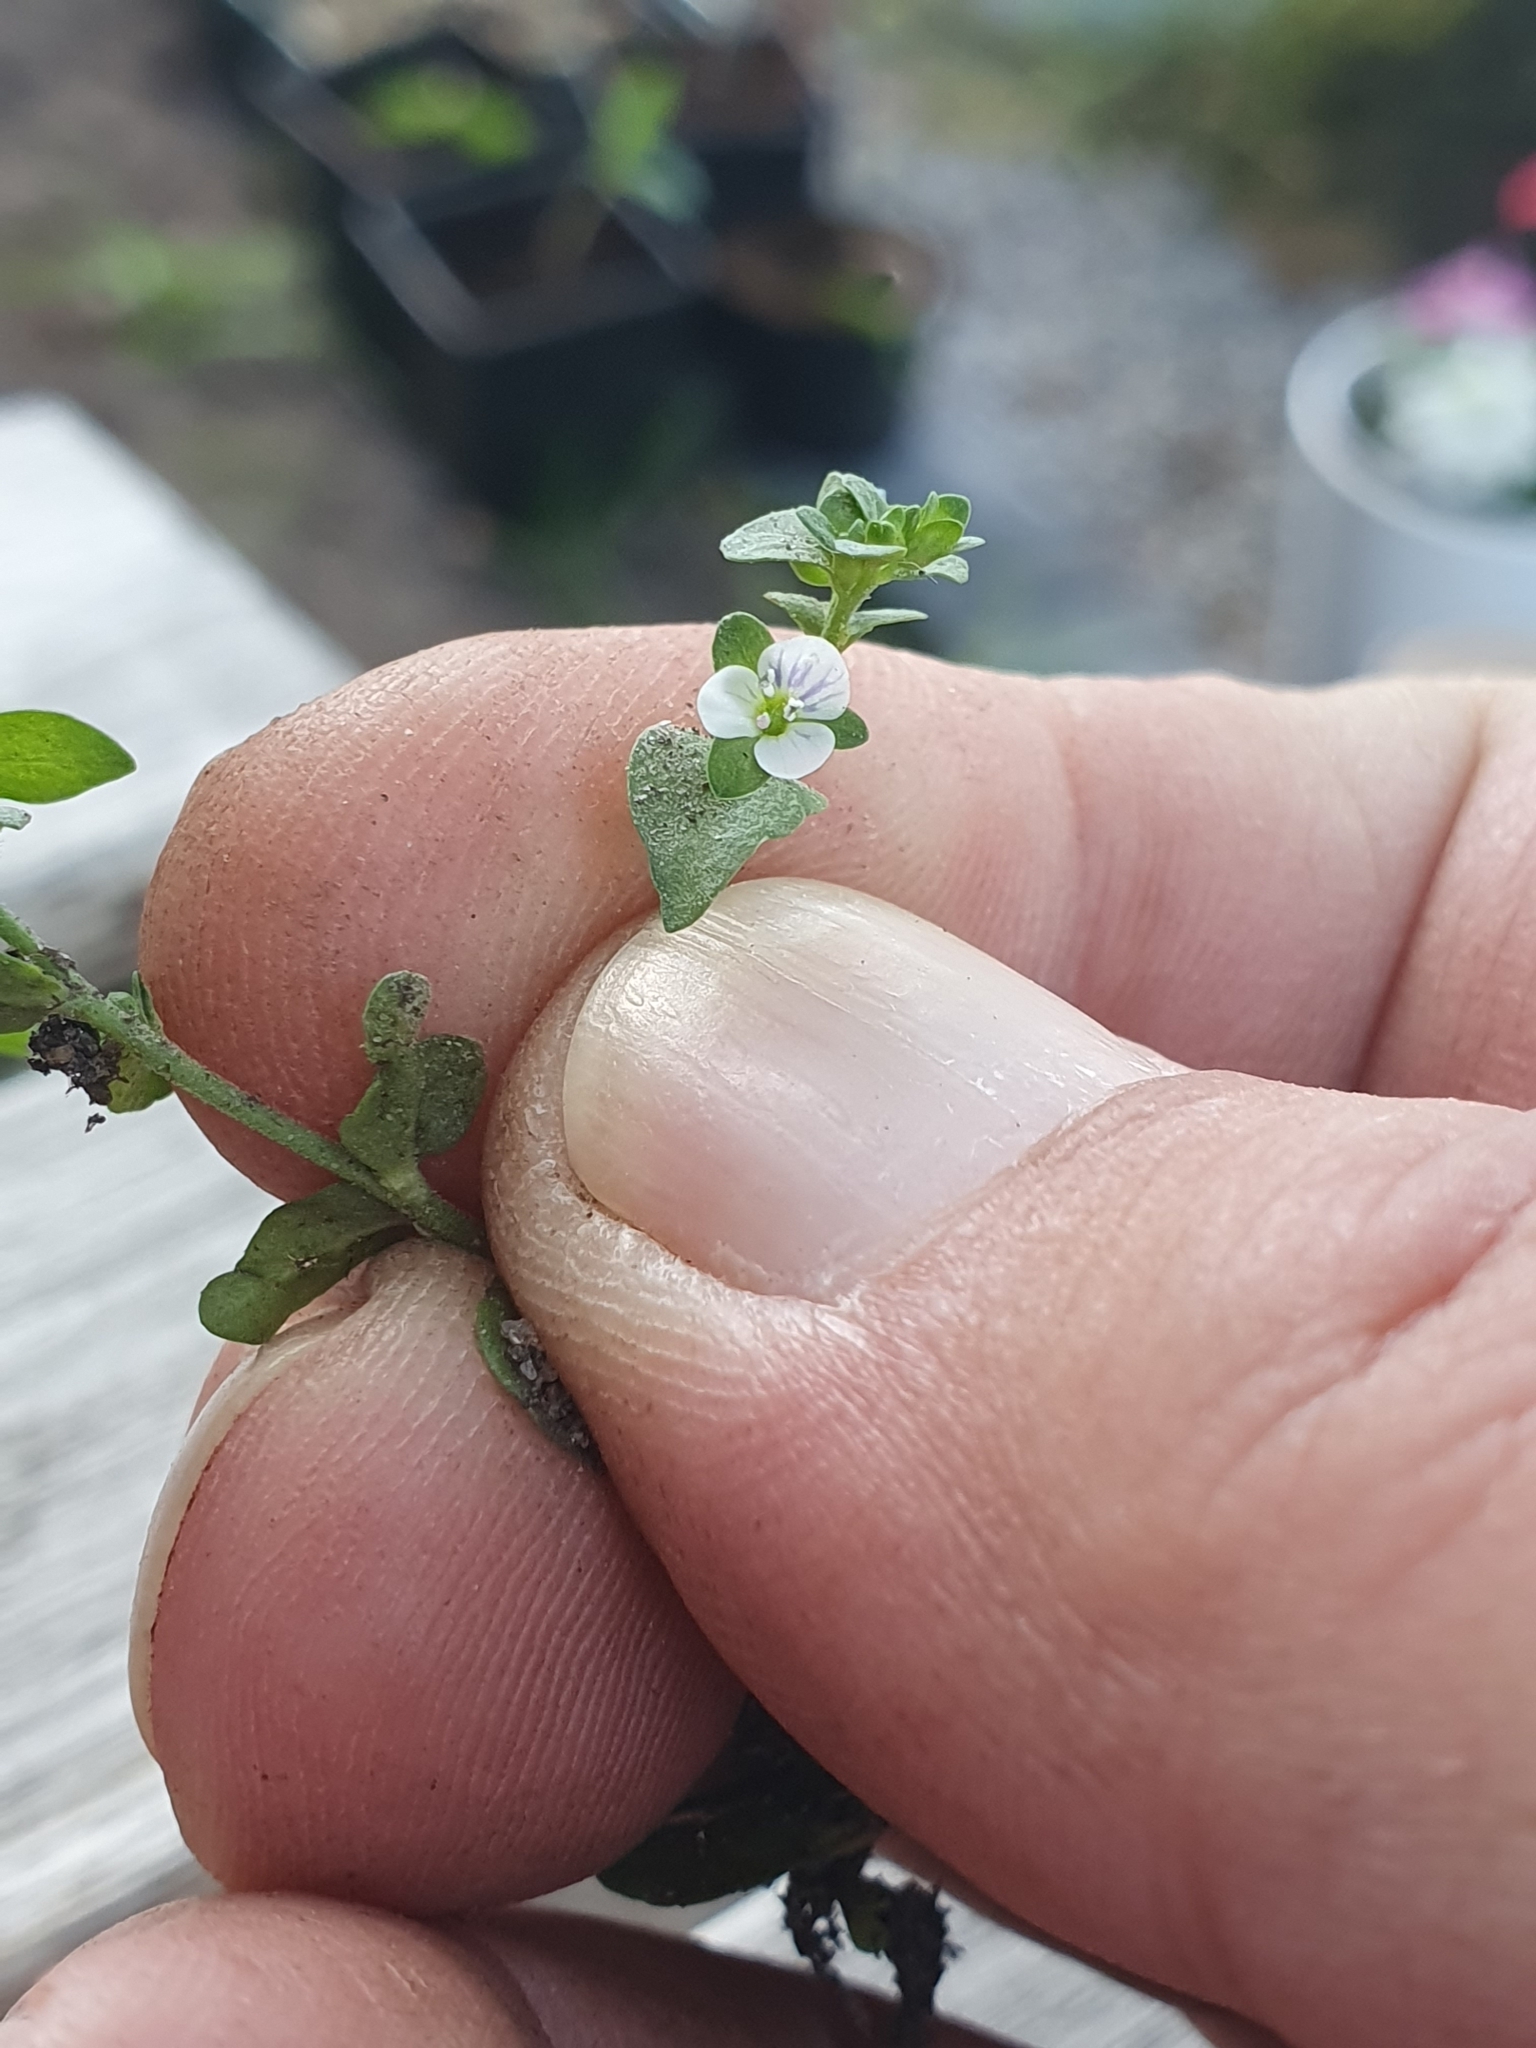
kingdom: Plantae
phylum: Tracheophyta
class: Magnoliopsida
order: Lamiales
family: Plantaginaceae
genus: Veronica
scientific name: Veronica serpyllifolia
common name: Thyme-leaved speedwell
